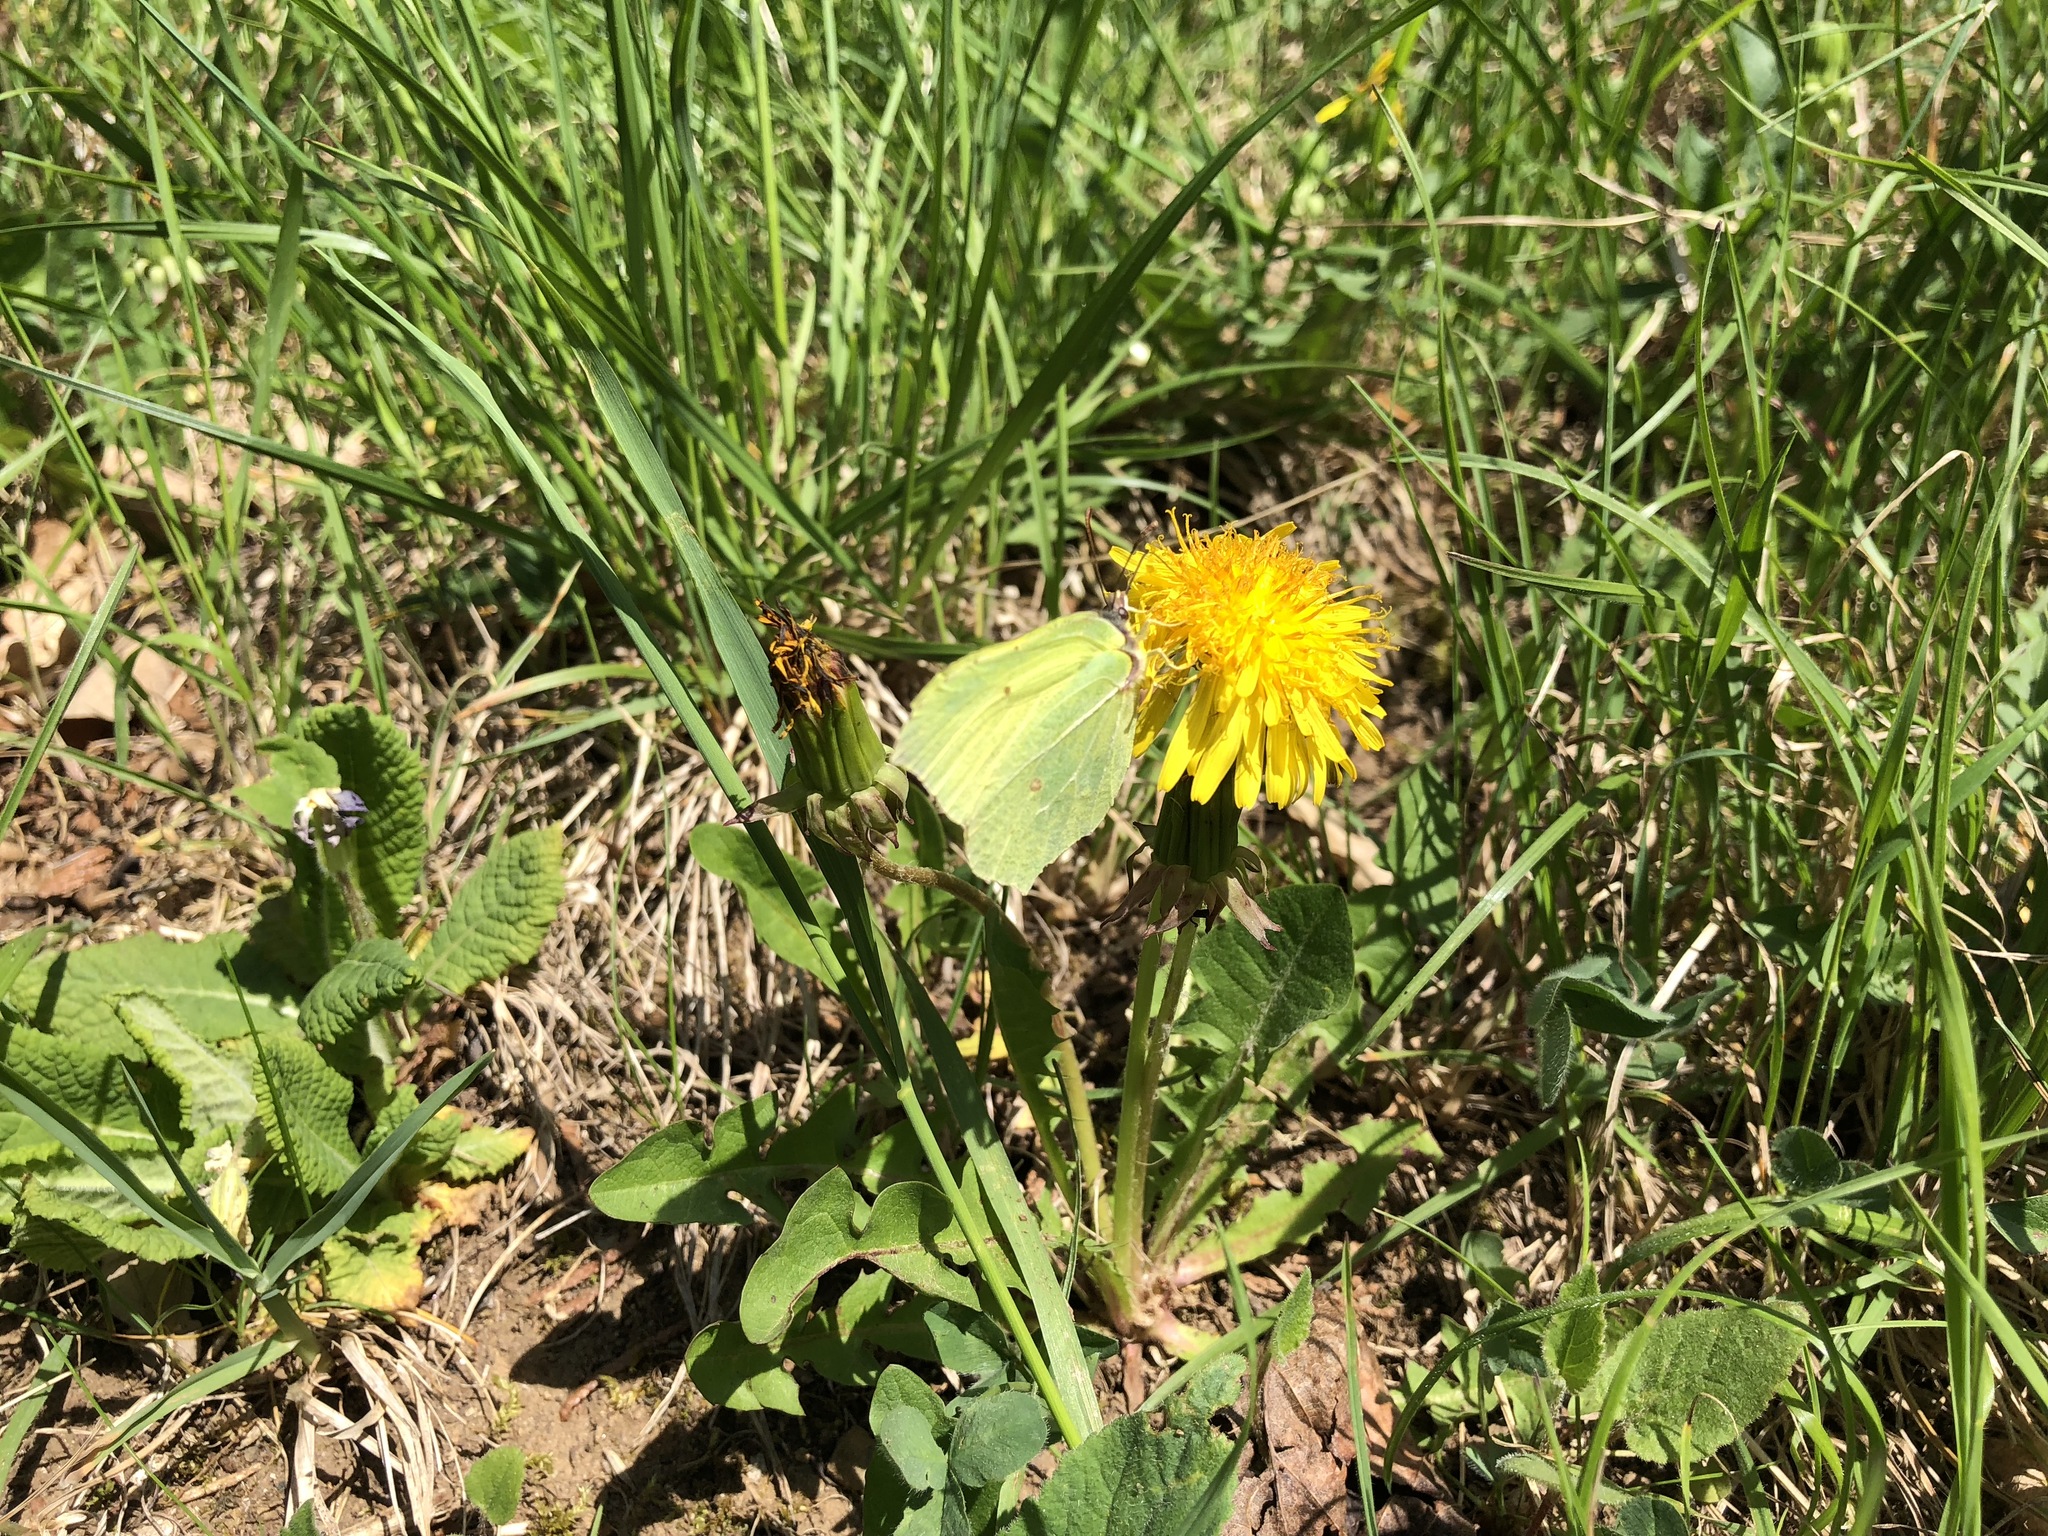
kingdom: Animalia
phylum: Arthropoda
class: Insecta
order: Lepidoptera
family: Pieridae
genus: Gonepteryx
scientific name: Gonepteryx rhamni
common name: Brimstone
